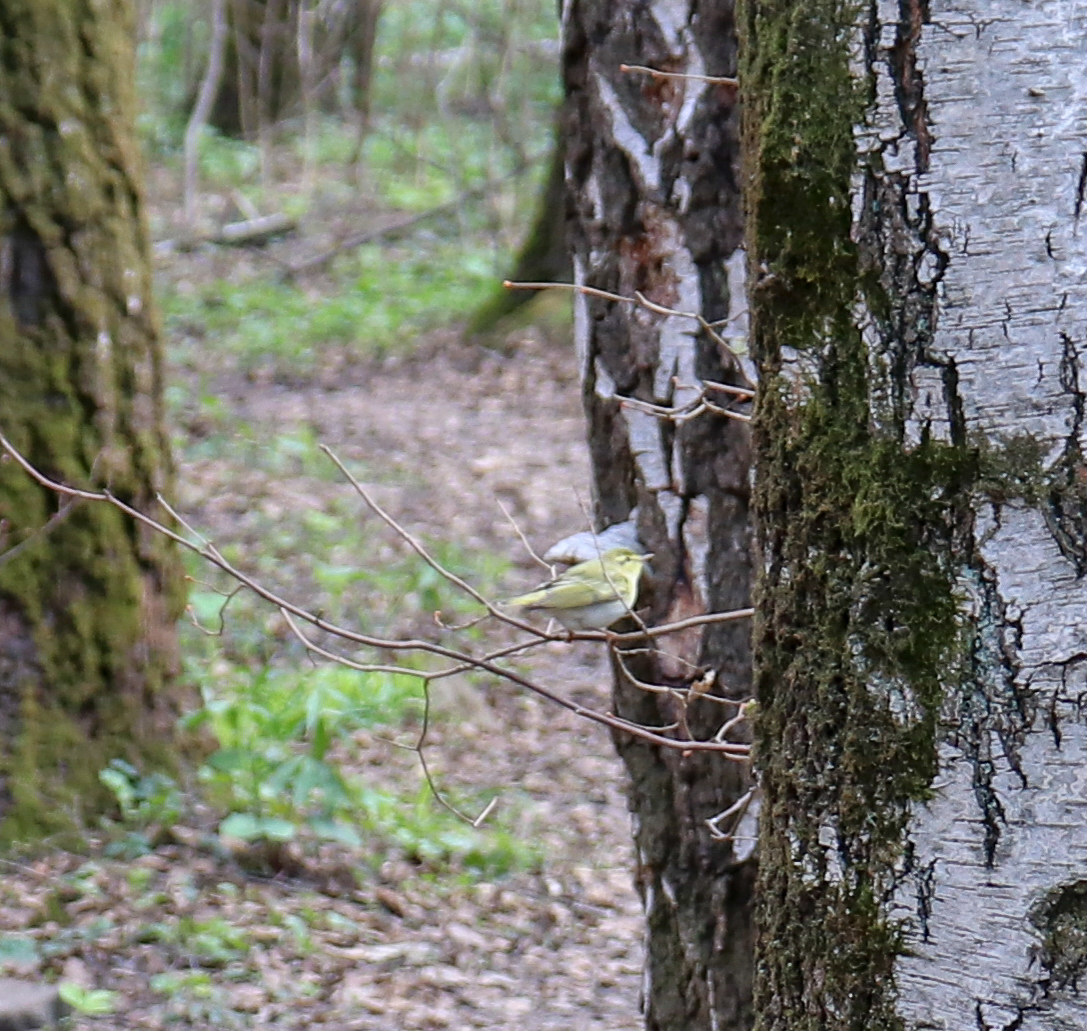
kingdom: Animalia
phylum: Chordata
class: Aves
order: Passeriformes
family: Phylloscopidae
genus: Phylloscopus
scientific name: Phylloscopus sibillatrix
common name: Wood warbler
